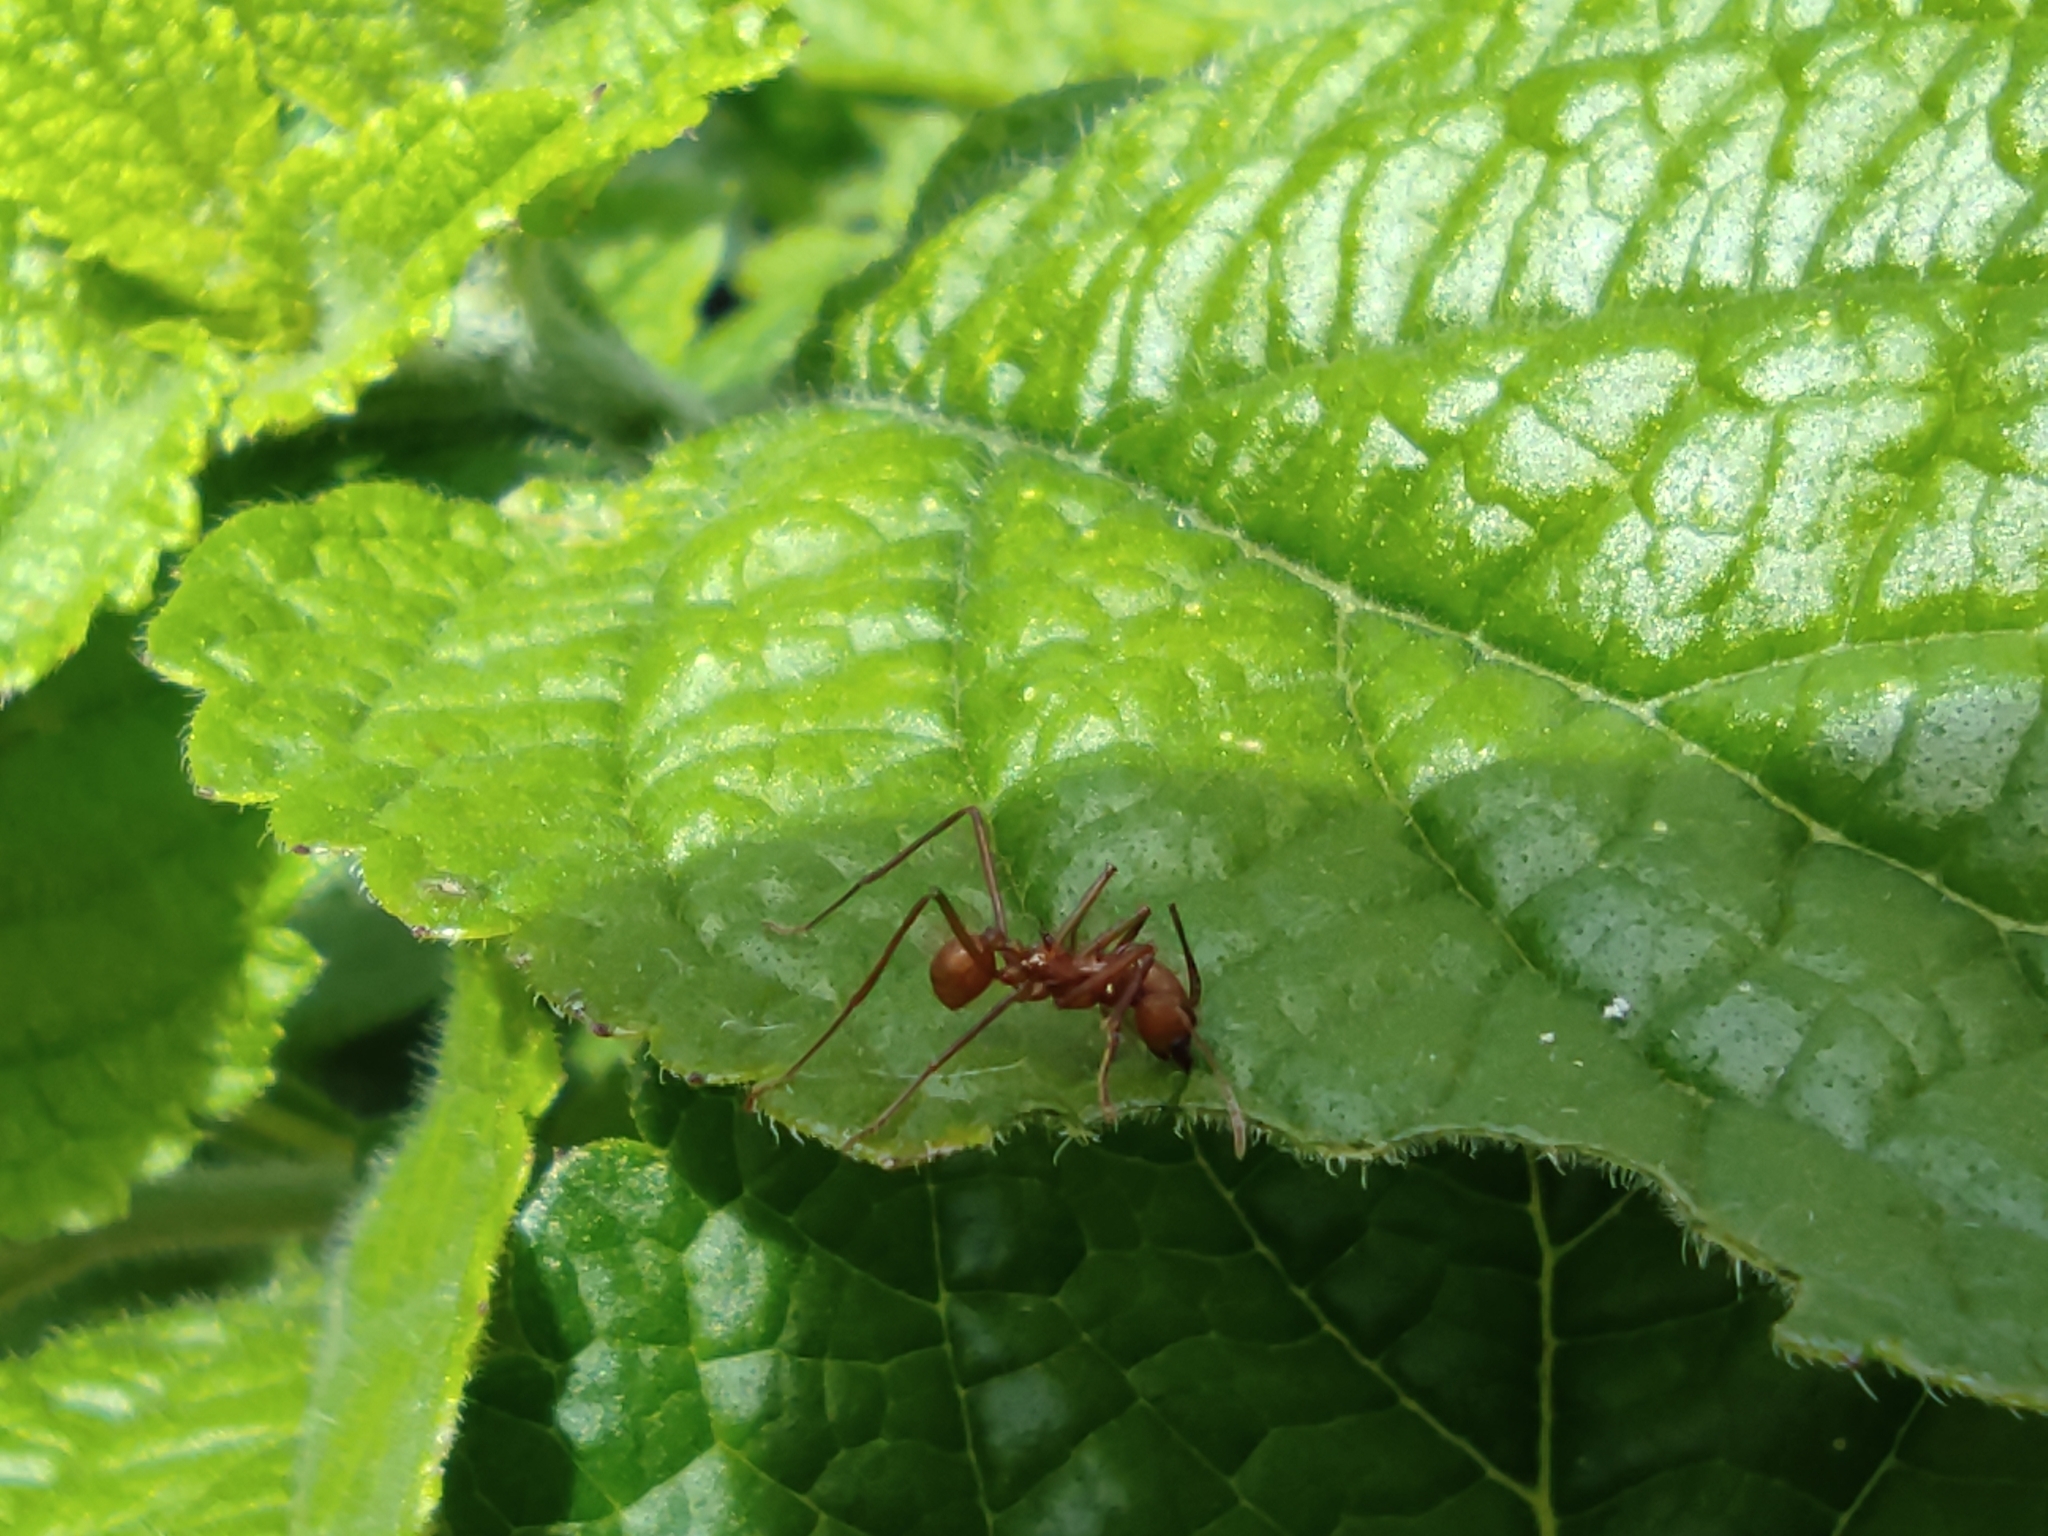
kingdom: Animalia
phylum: Arthropoda
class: Insecta
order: Hymenoptera
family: Formicidae
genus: Atta
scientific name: Atta cephalotes
